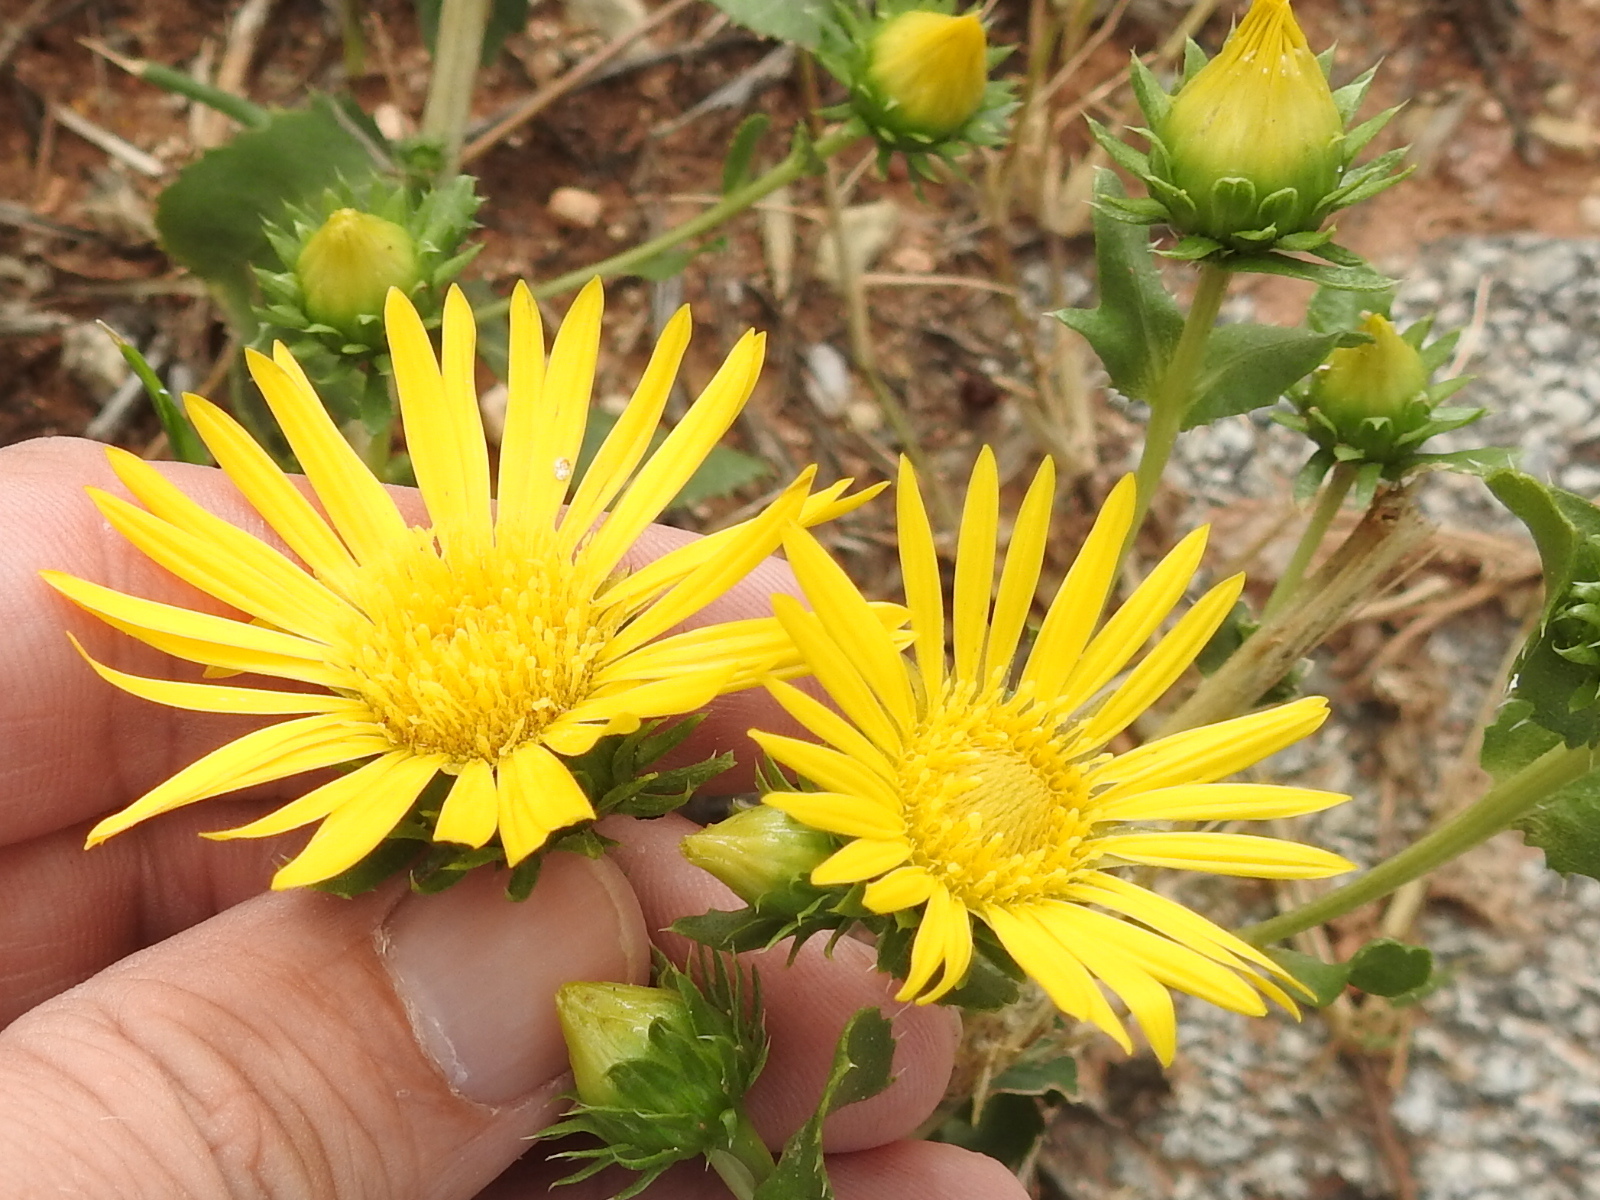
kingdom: Plantae
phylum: Tracheophyta
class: Magnoliopsida
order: Asterales
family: Asteraceae
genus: Grindelia
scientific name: Grindelia ciliata
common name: Goldenweed
